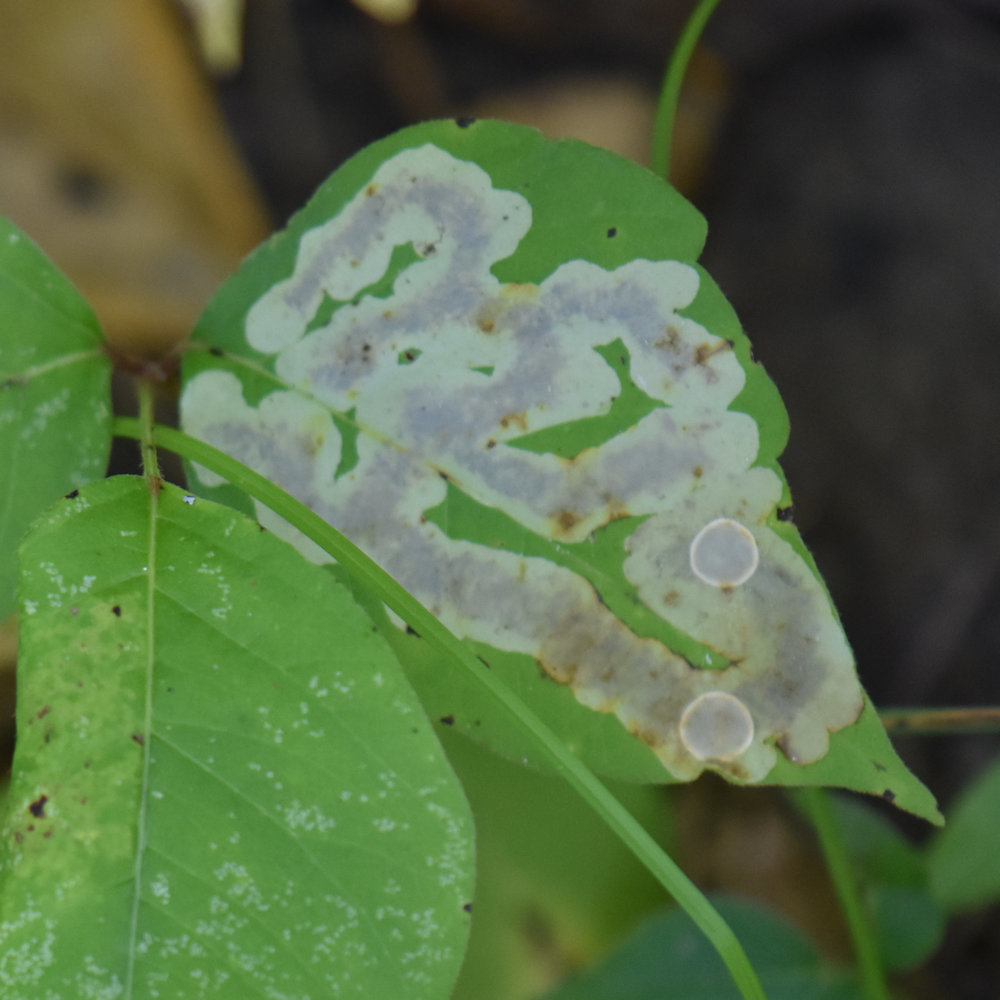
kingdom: Animalia
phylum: Arthropoda
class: Insecta
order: Lepidoptera
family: Gracillariidae
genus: Cameraria
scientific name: Cameraria guttifinitella
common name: Poison ivy leaf-miner moth
